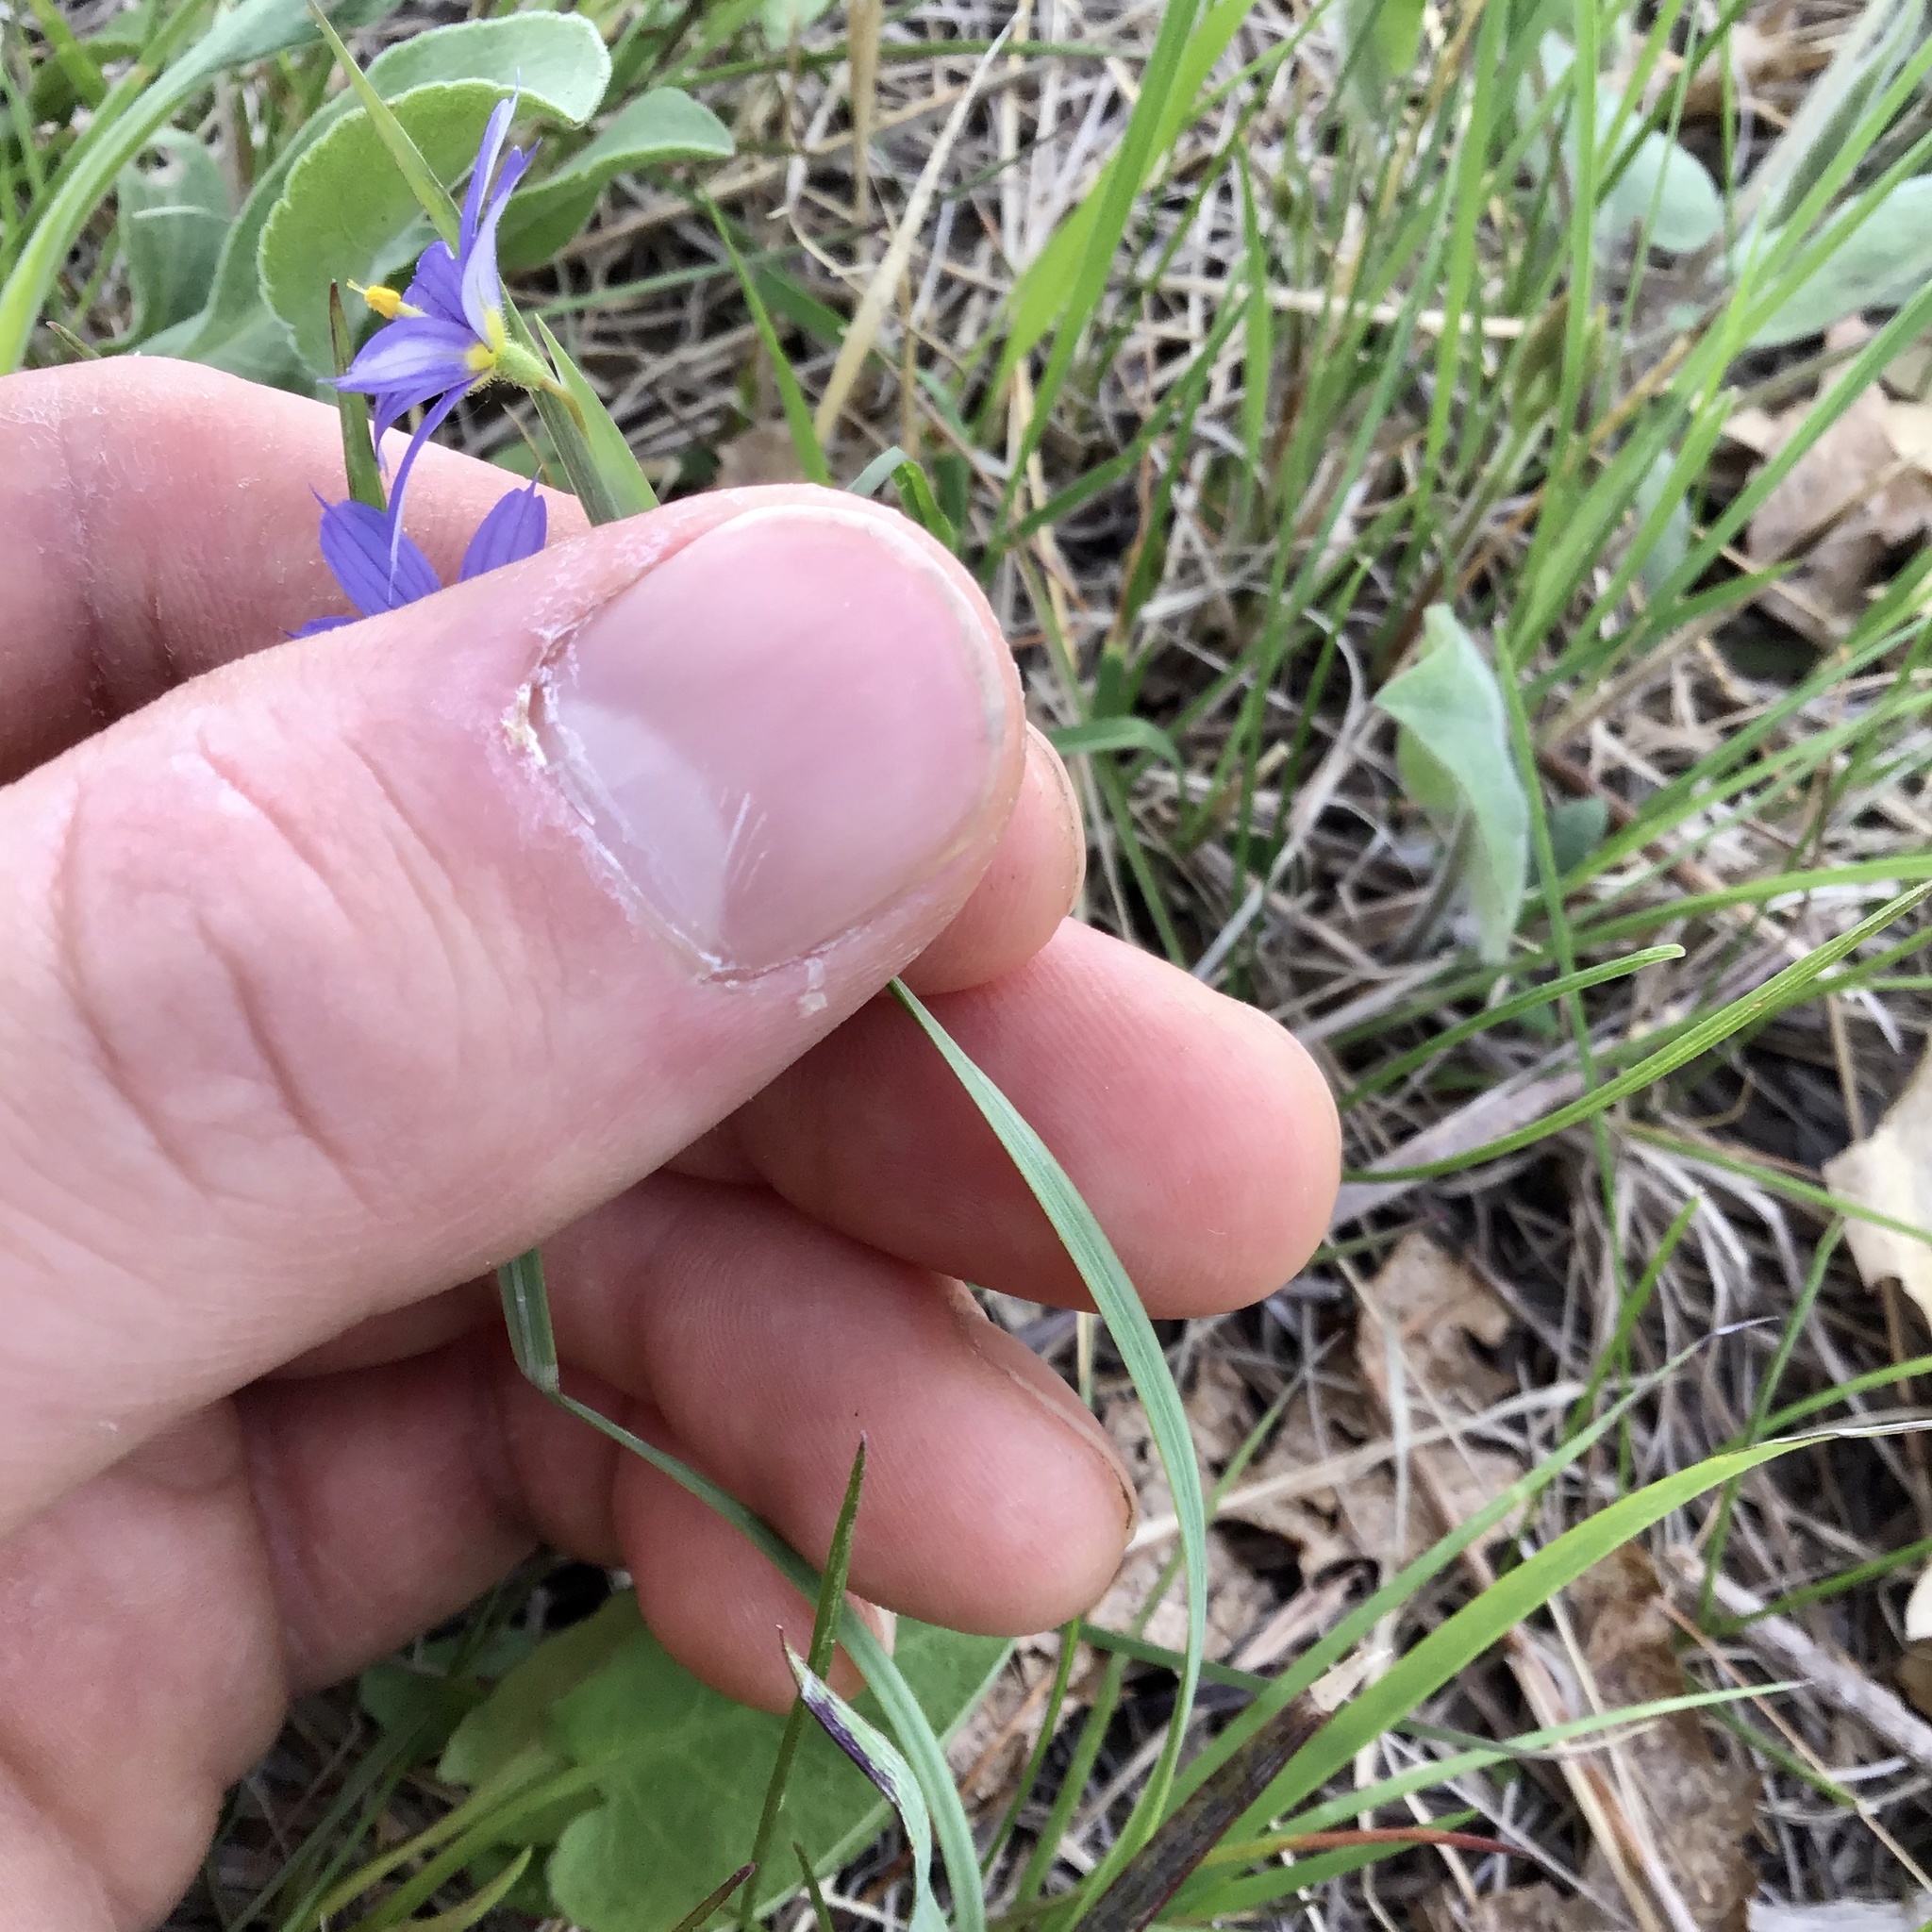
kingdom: Plantae
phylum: Tracheophyta
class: Liliopsida
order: Asparagales
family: Iridaceae
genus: Sisyrinchium
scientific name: Sisyrinchium campestre
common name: Prairie blue-eyed-grass
